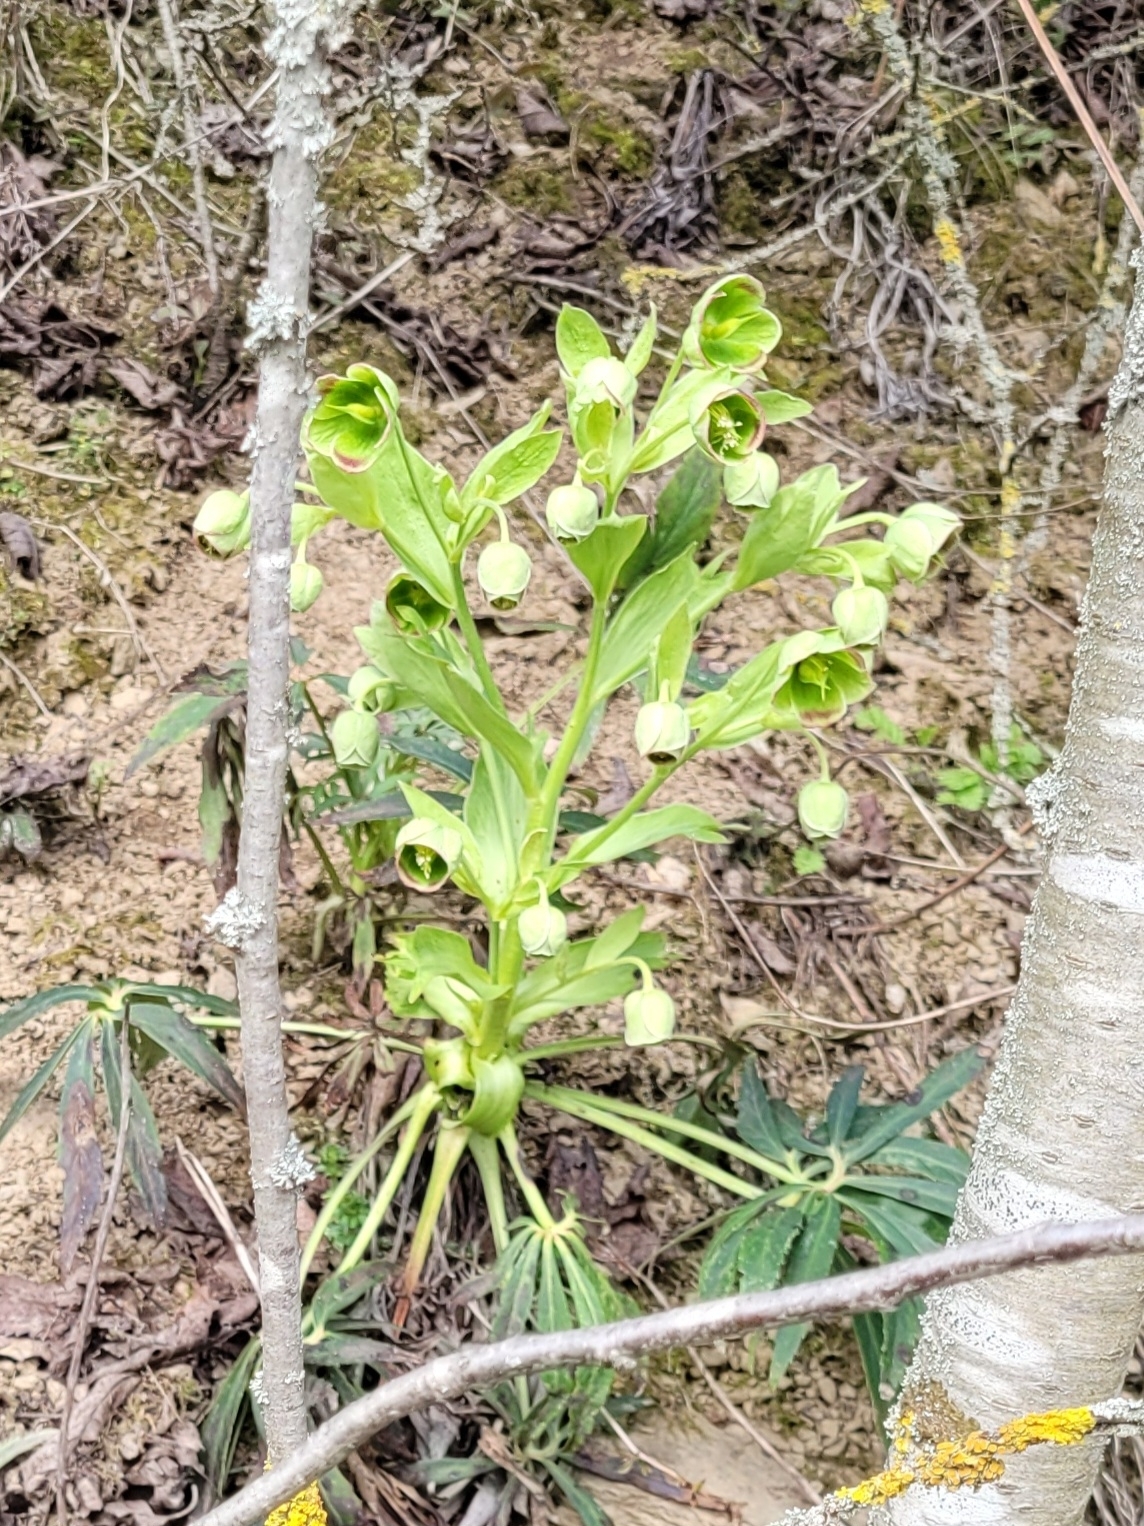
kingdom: Plantae
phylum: Tracheophyta
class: Magnoliopsida
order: Ranunculales
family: Ranunculaceae
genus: Helleborus
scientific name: Helleborus foetidus
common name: Stinking hellebore
